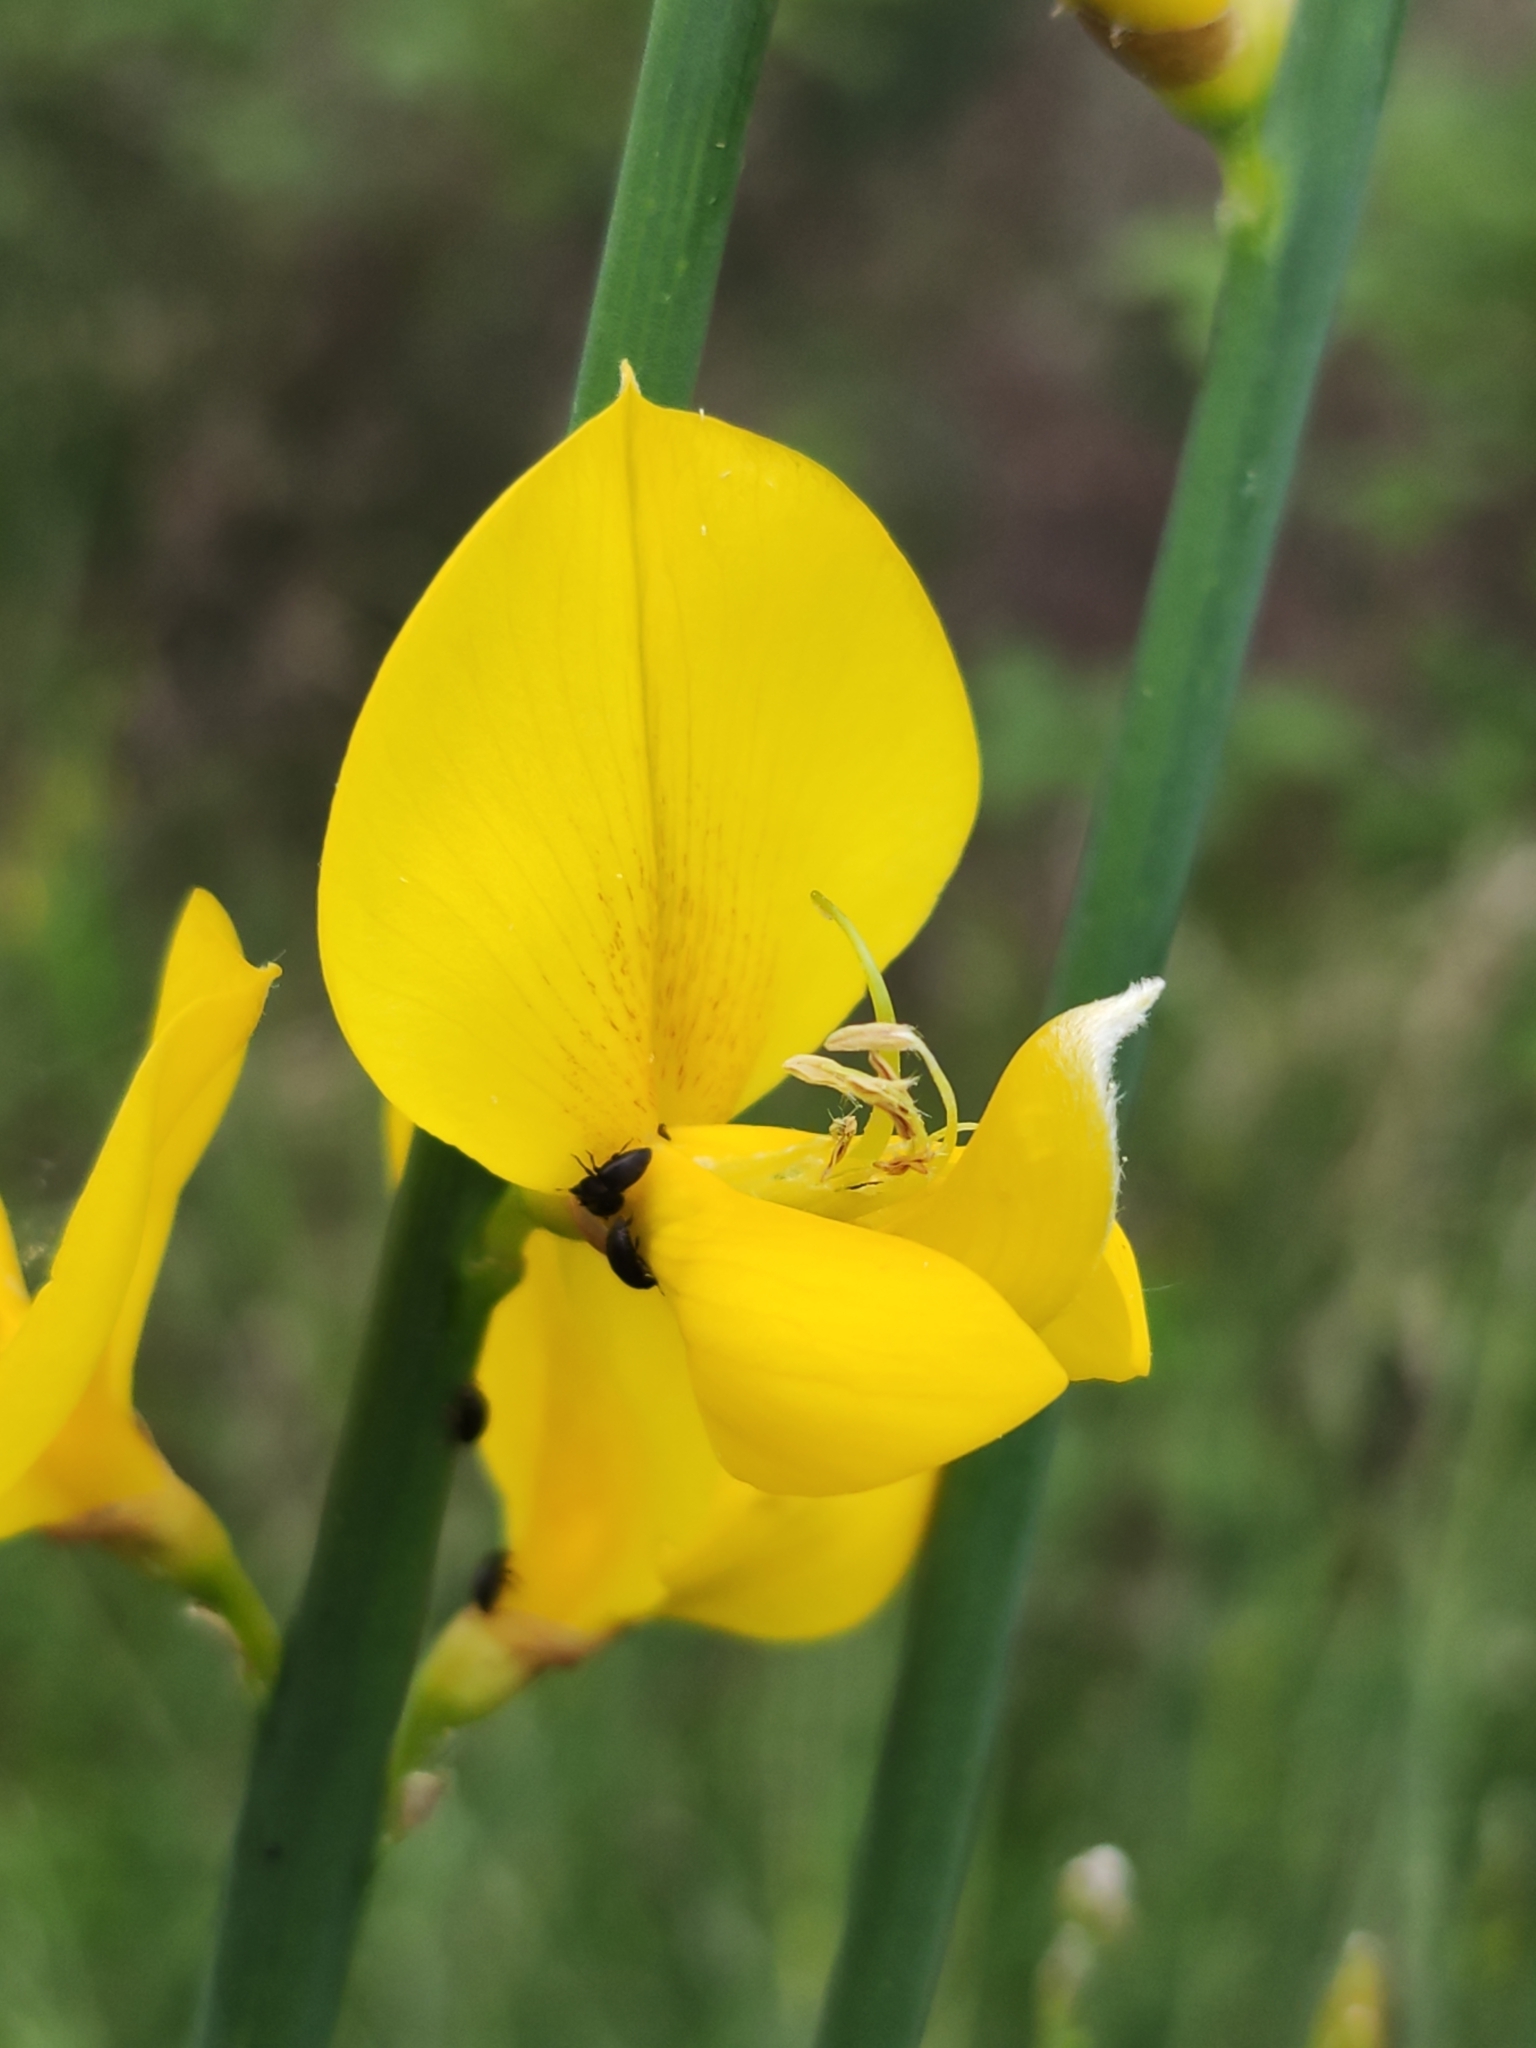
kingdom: Plantae
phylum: Tracheophyta
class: Magnoliopsida
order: Fabales
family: Fabaceae
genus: Spartium
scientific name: Spartium junceum
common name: Spanish broom
